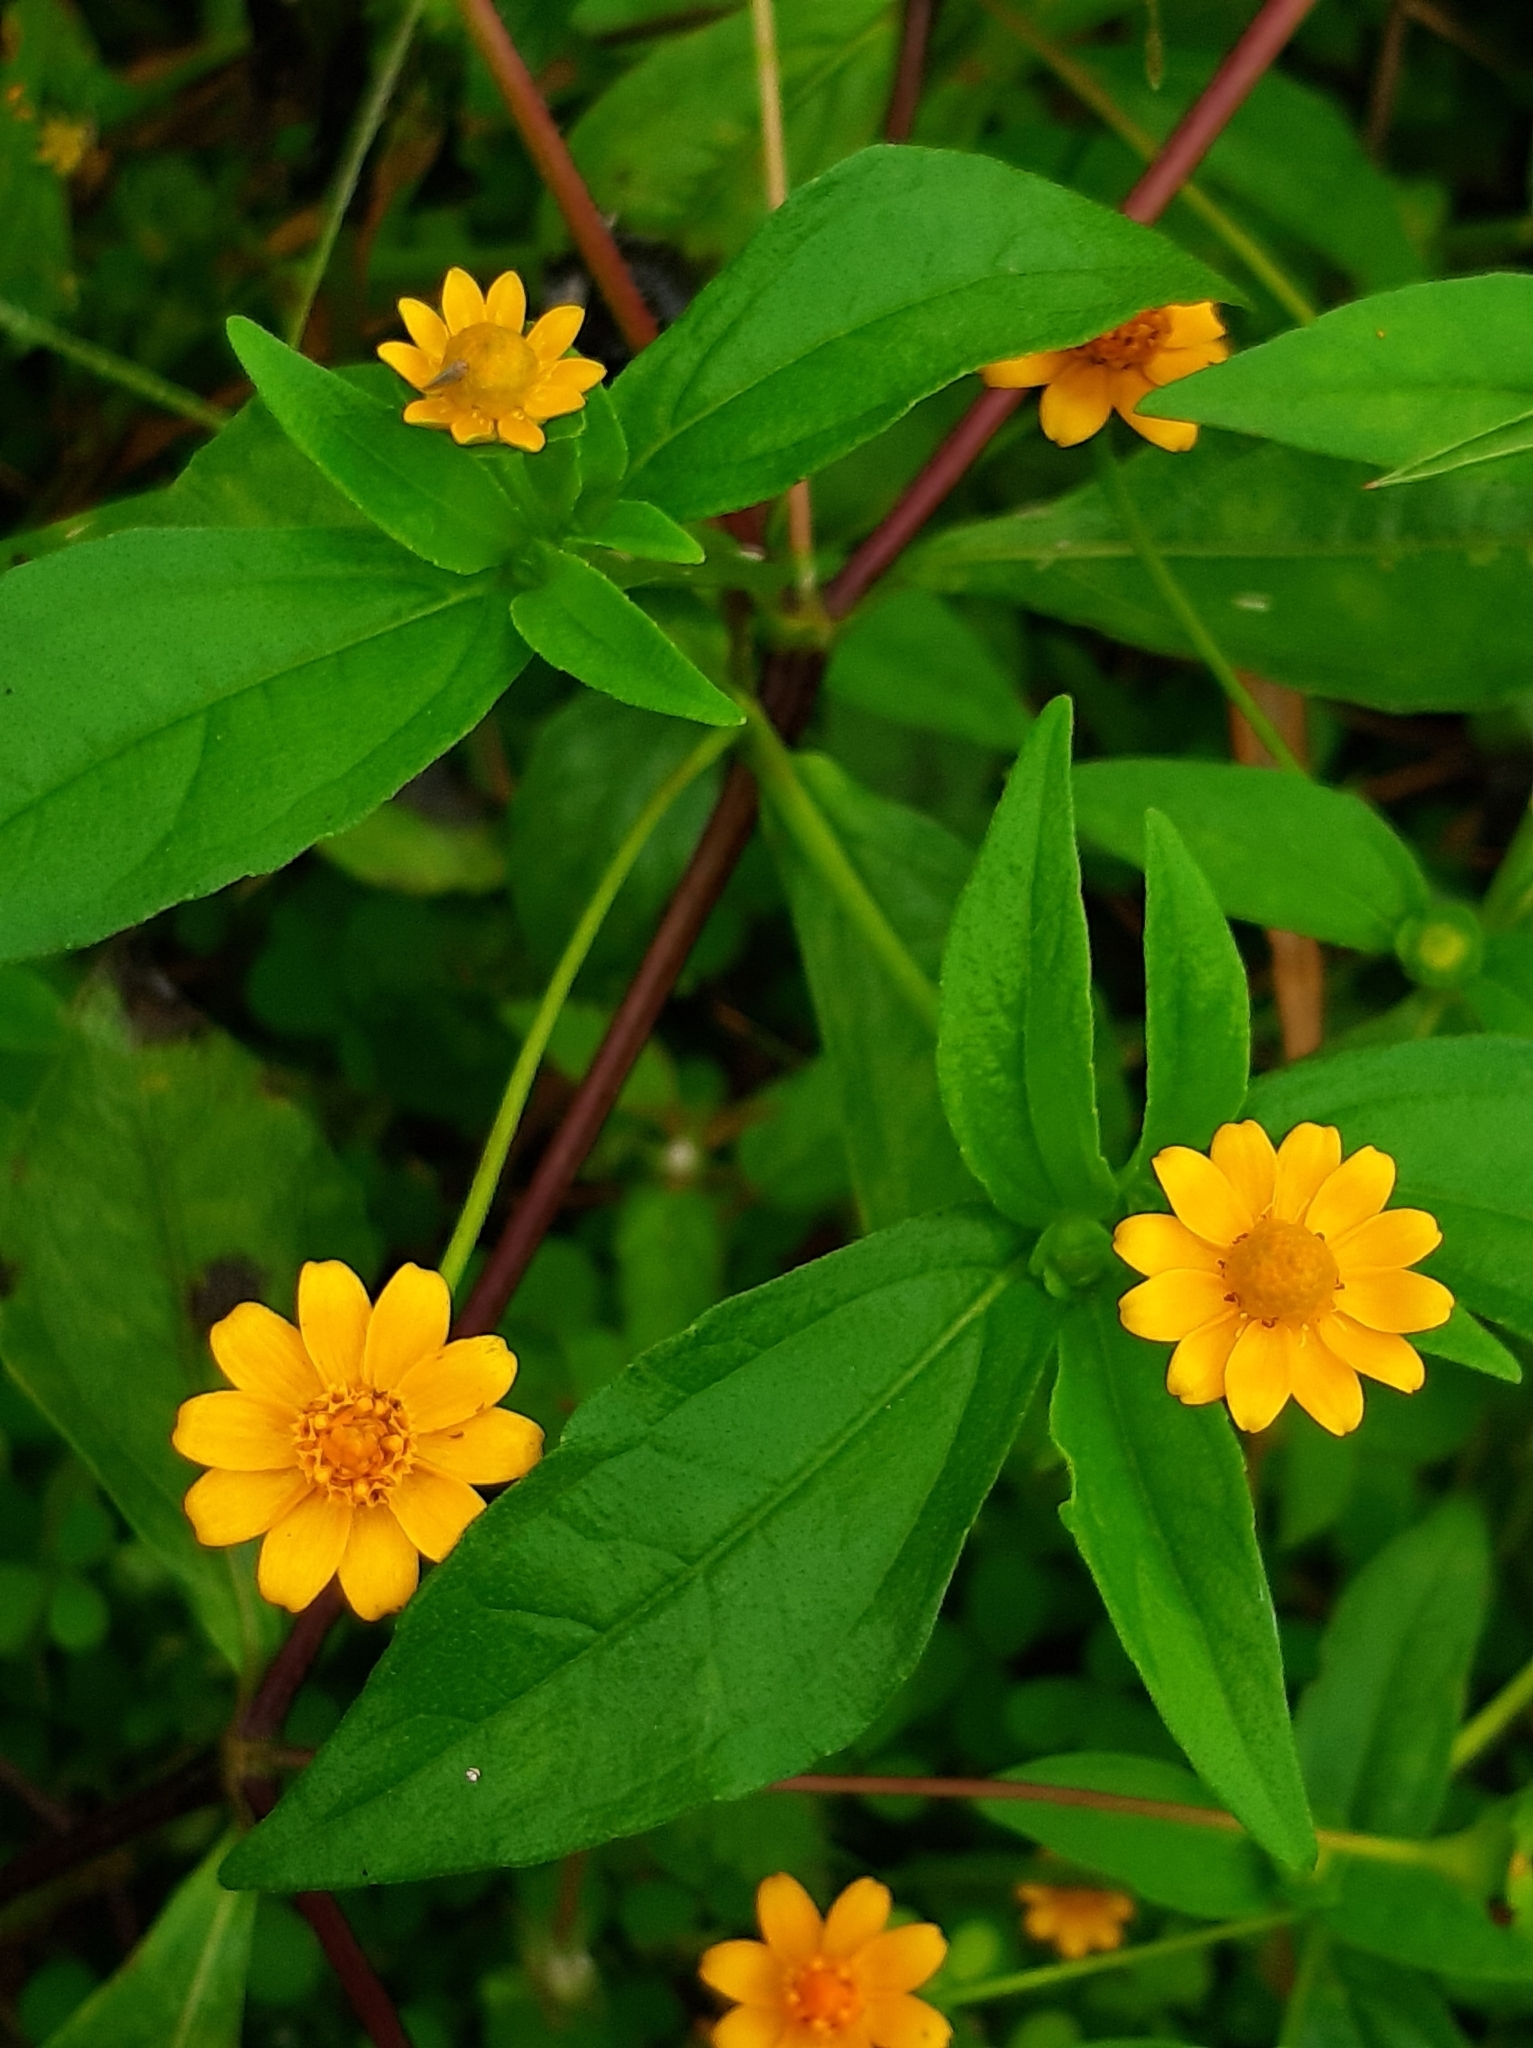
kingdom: Plantae
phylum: Tracheophyta
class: Magnoliopsida
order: Asterales
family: Asteraceae
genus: Melampodium
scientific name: Melampodium divaricatum
